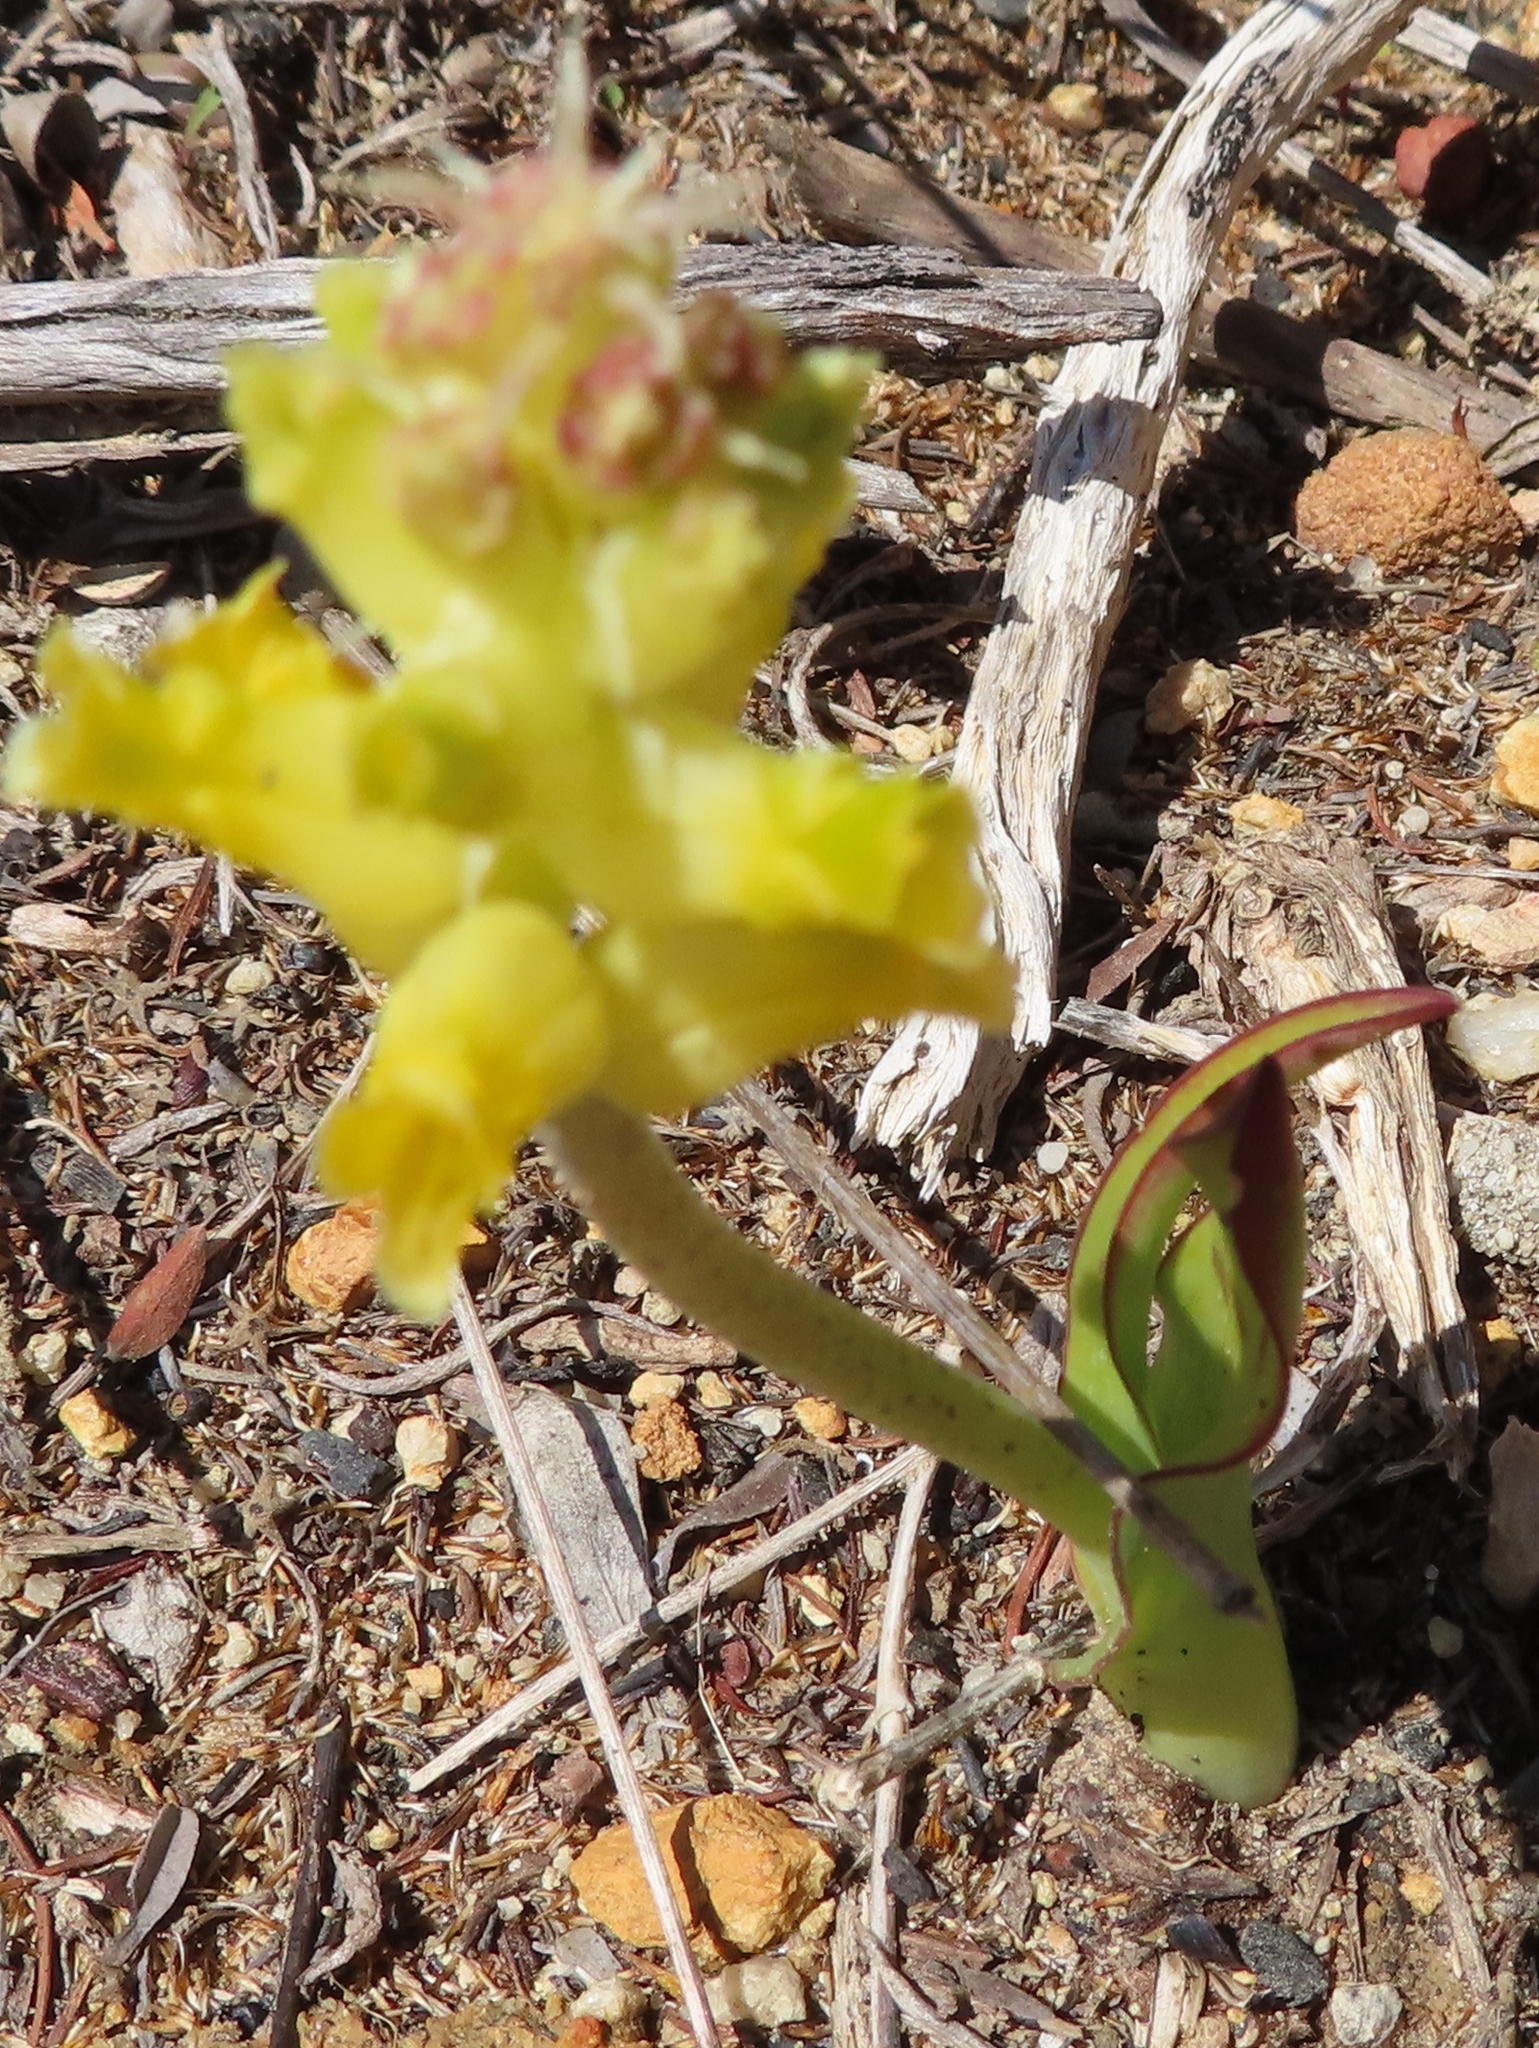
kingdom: Plantae
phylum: Tracheophyta
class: Liliopsida
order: Asparagales
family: Asparagaceae
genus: Lachenalia
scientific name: Lachenalia lutea
